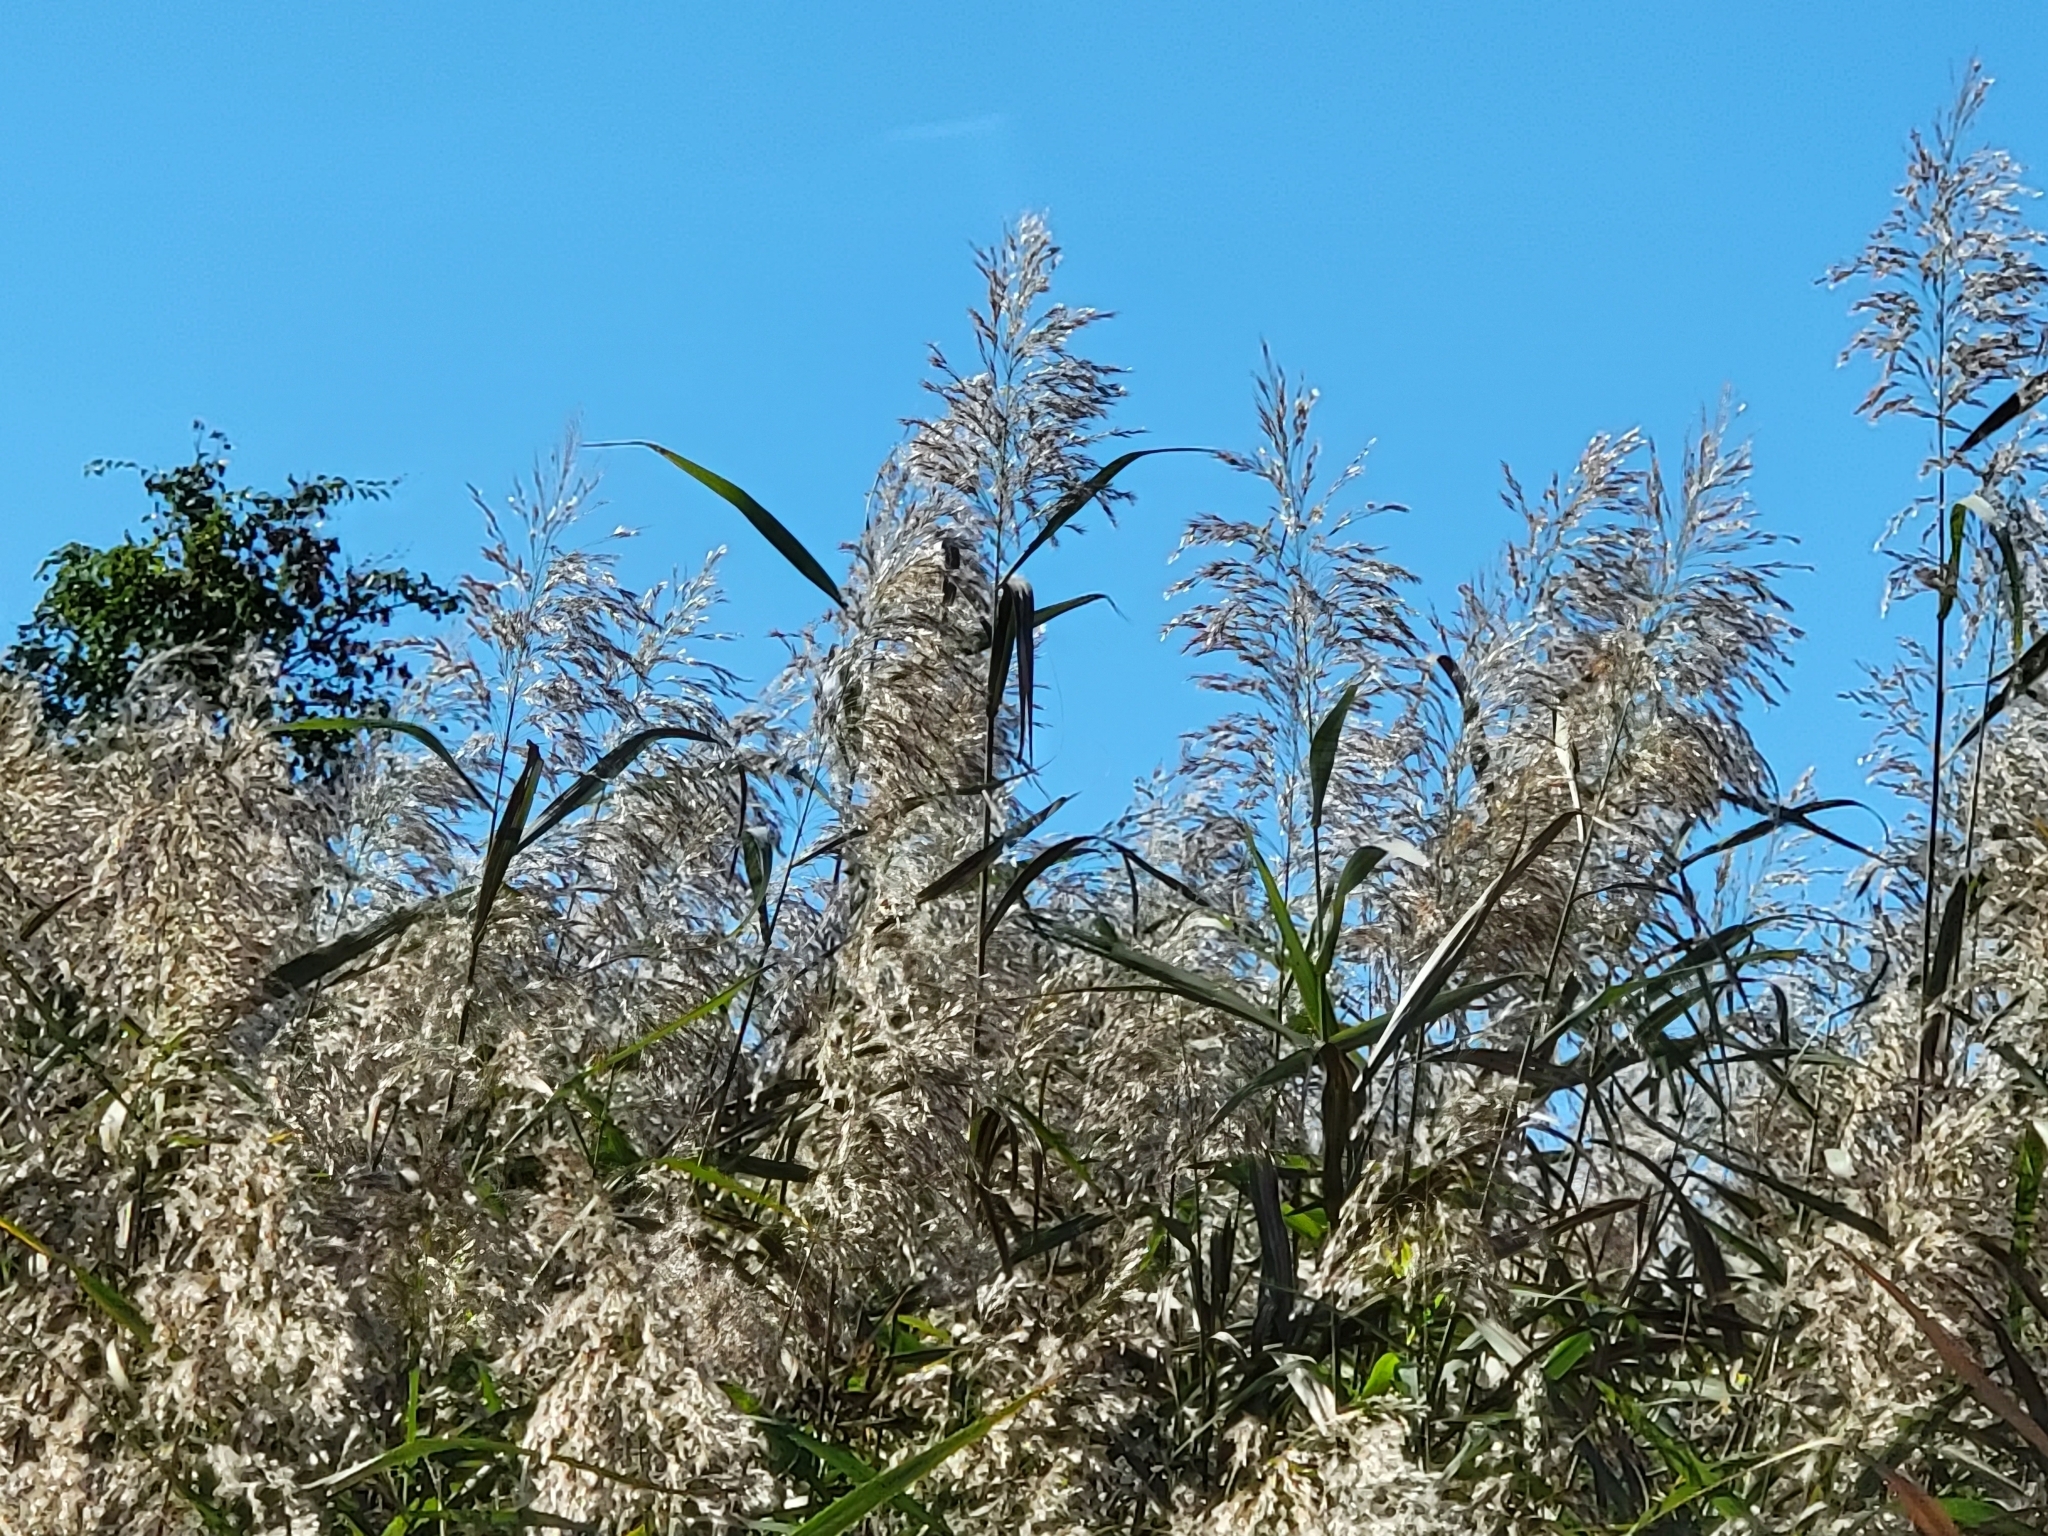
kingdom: Plantae
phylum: Tracheophyta
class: Liliopsida
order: Poales
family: Poaceae
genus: Phragmites
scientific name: Phragmites australis
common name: Common reed
